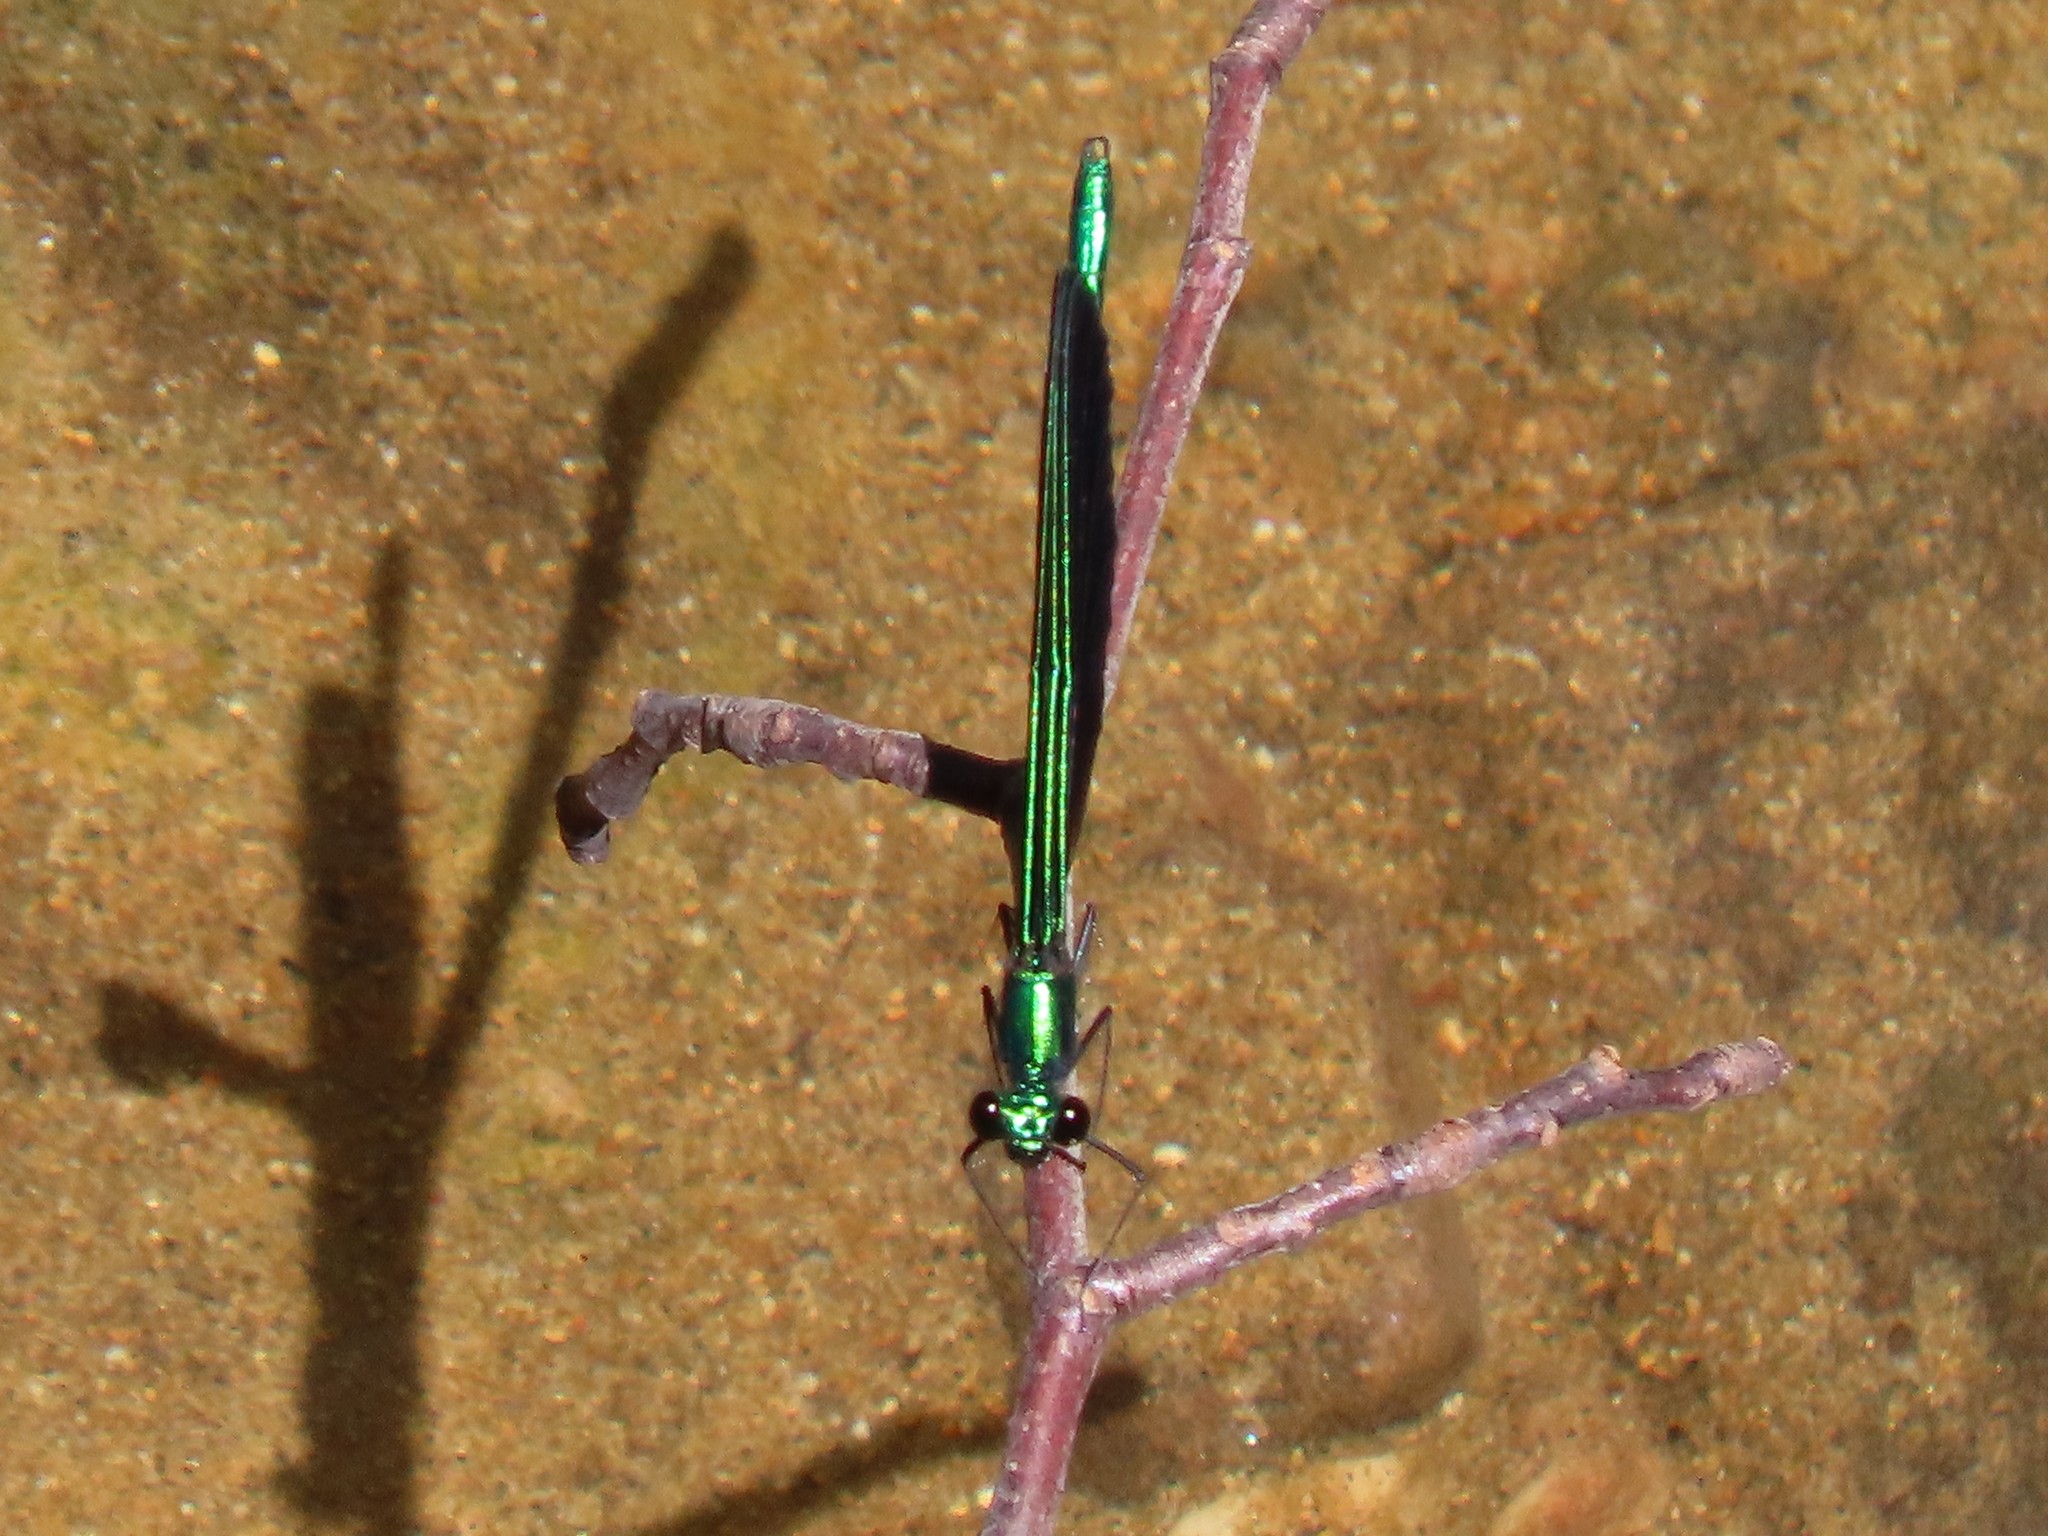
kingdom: Animalia
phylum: Arthropoda
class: Insecta
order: Odonata
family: Calopterygidae
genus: Calopteryx
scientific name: Calopteryx maculata
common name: Ebony jewelwing
